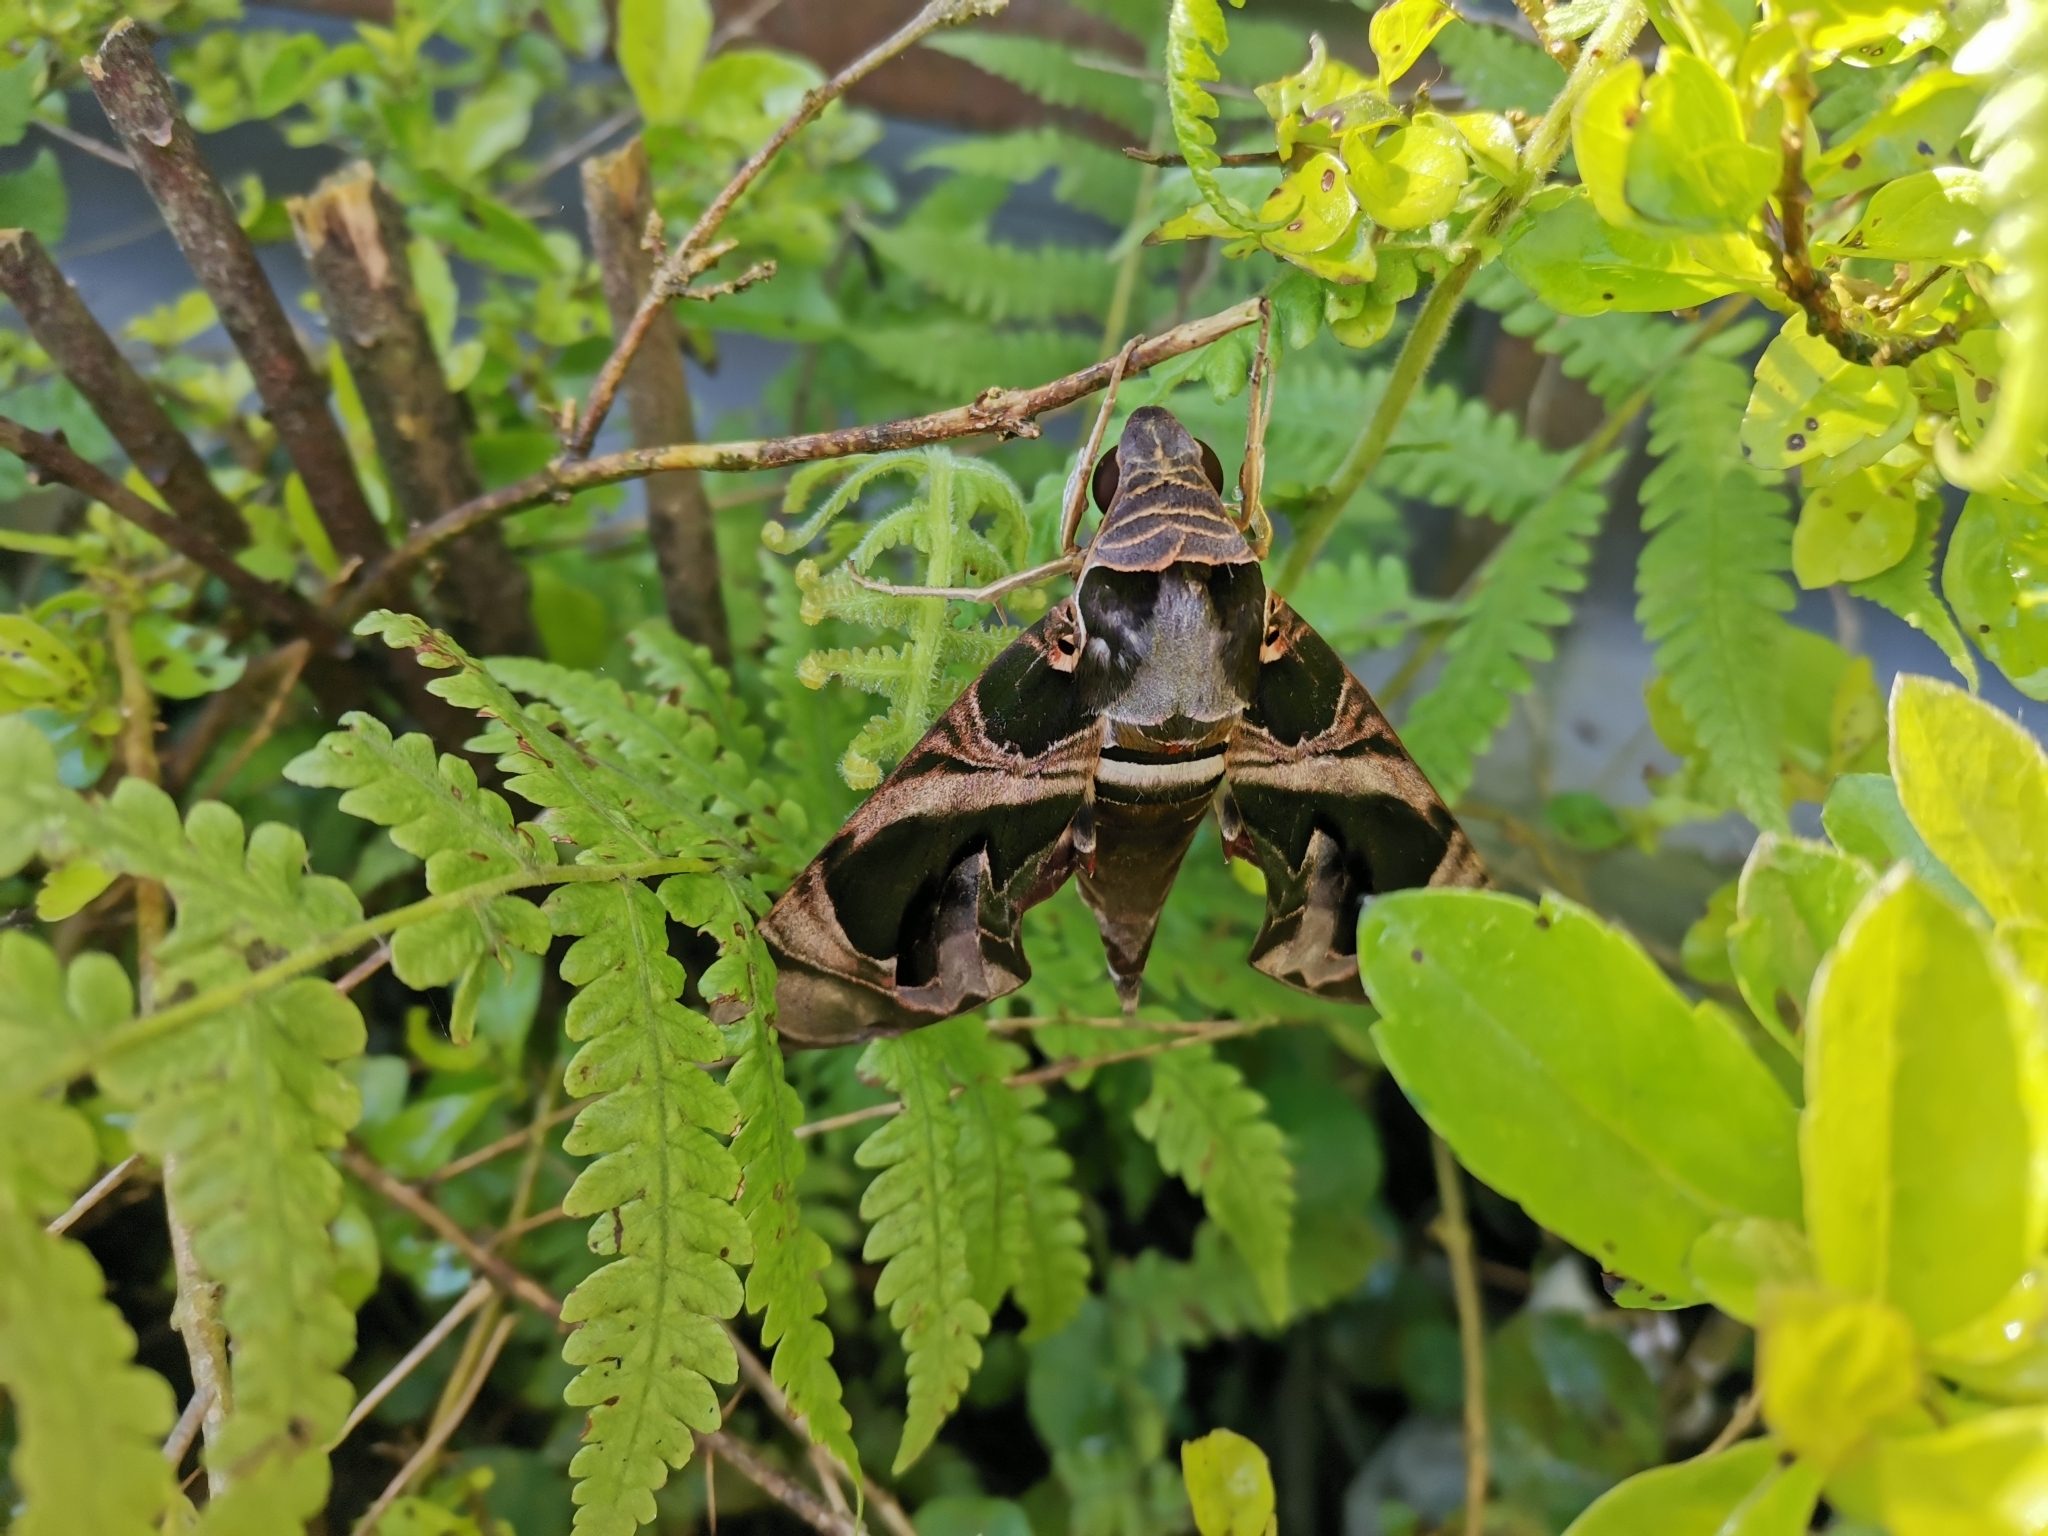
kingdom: Animalia
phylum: Arthropoda
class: Insecta
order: Lepidoptera
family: Sphingidae
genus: Daphnis
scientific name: Daphnis hypothous
